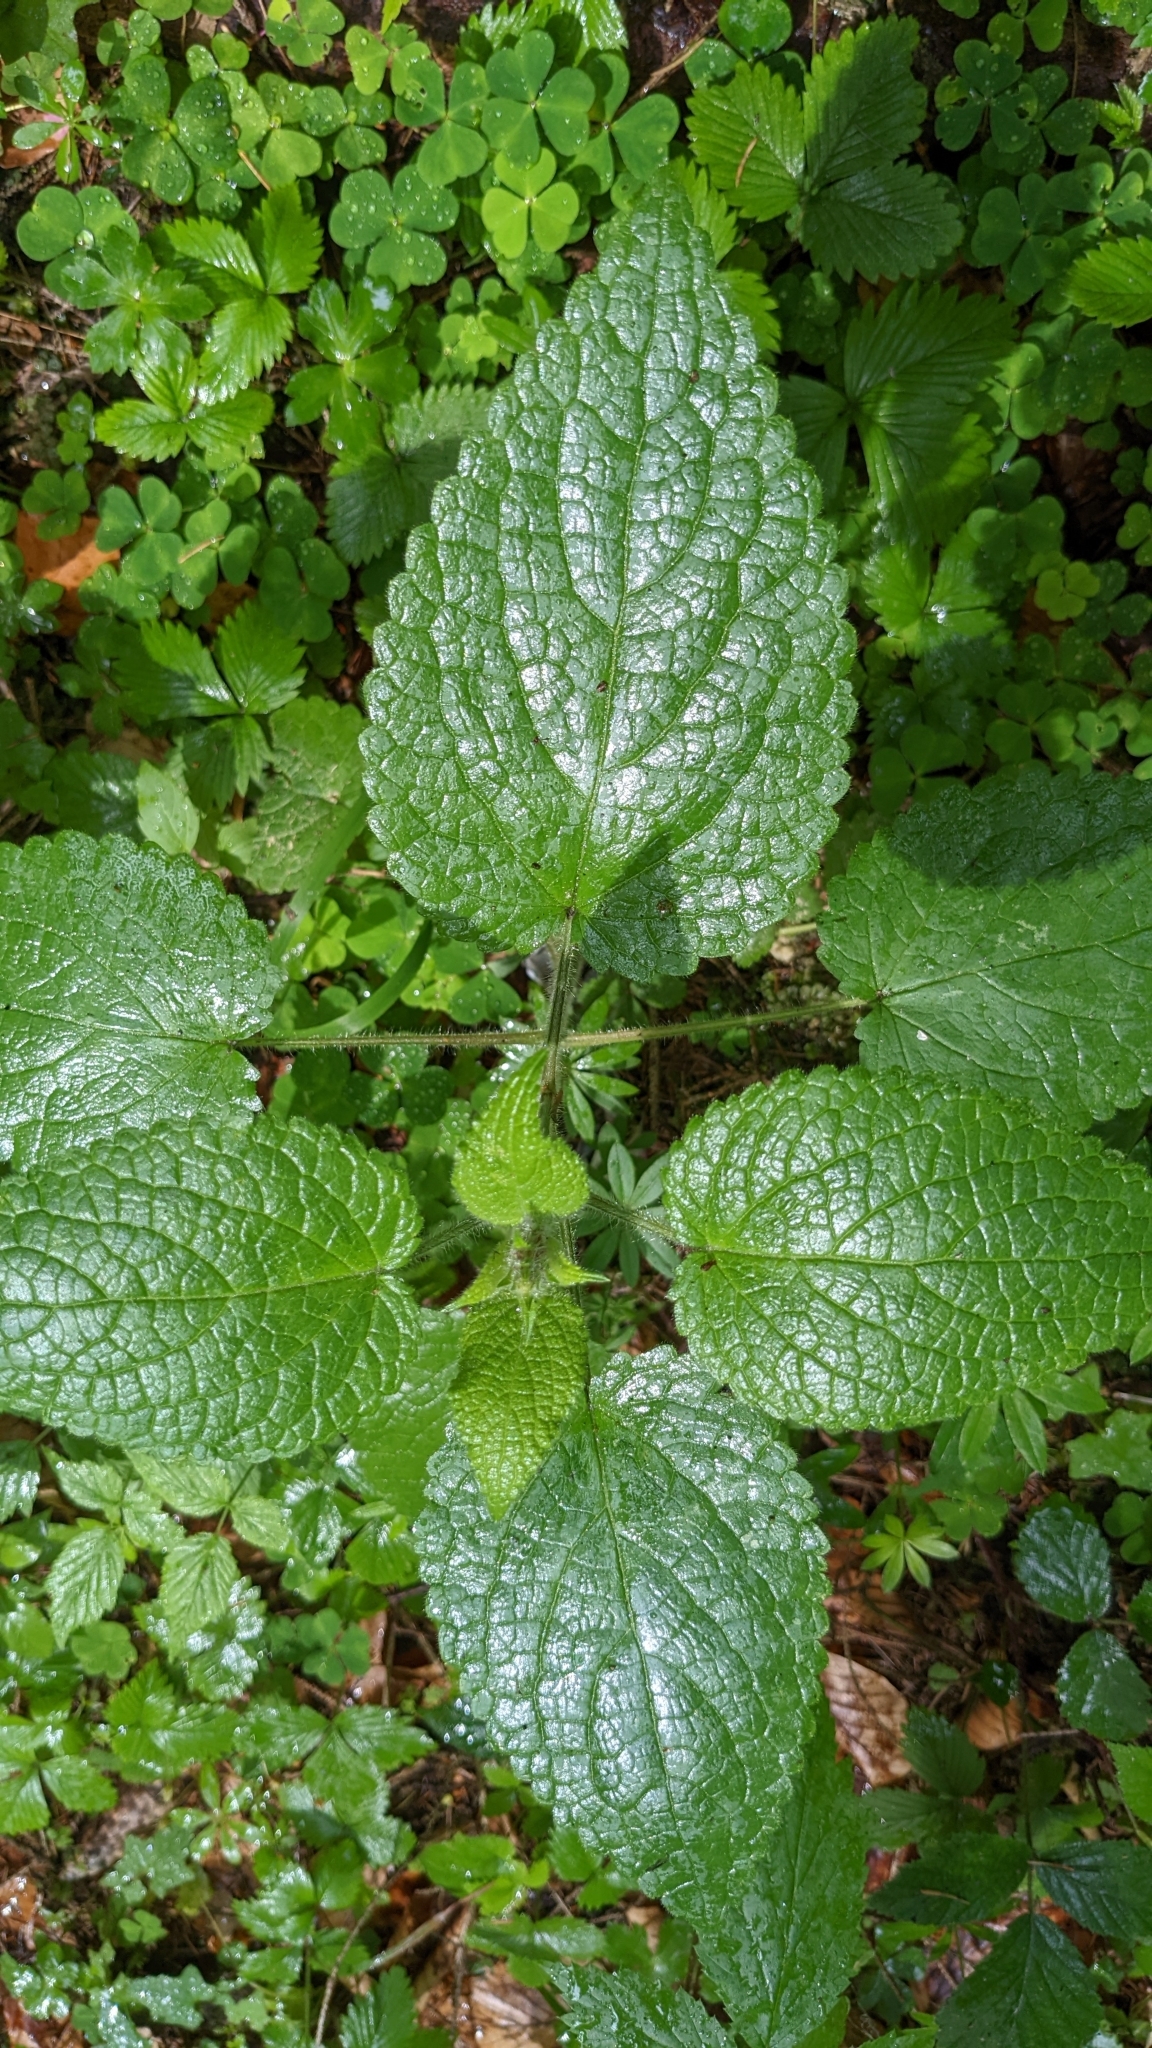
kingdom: Plantae
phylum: Tracheophyta
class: Magnoliopsida
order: Lamiales
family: Lamiaceae
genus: Stachys
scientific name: Stachys sylvatica
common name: Hedge woundwort
